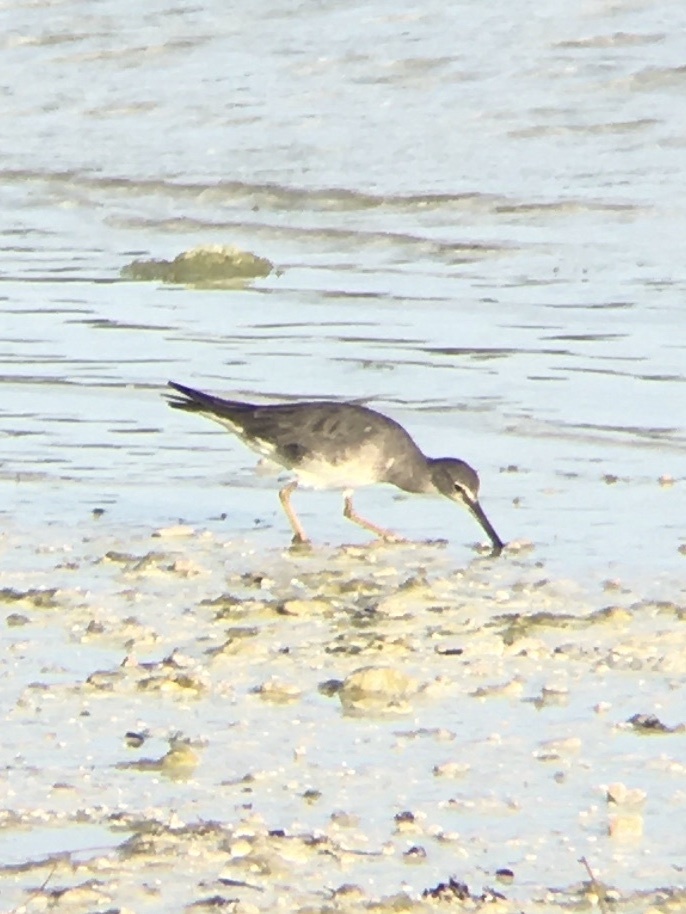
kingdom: Animalia
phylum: Chordata
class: Aves
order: Charadriiformes
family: Scolopacidae
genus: Tringa
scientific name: Tringa incana
